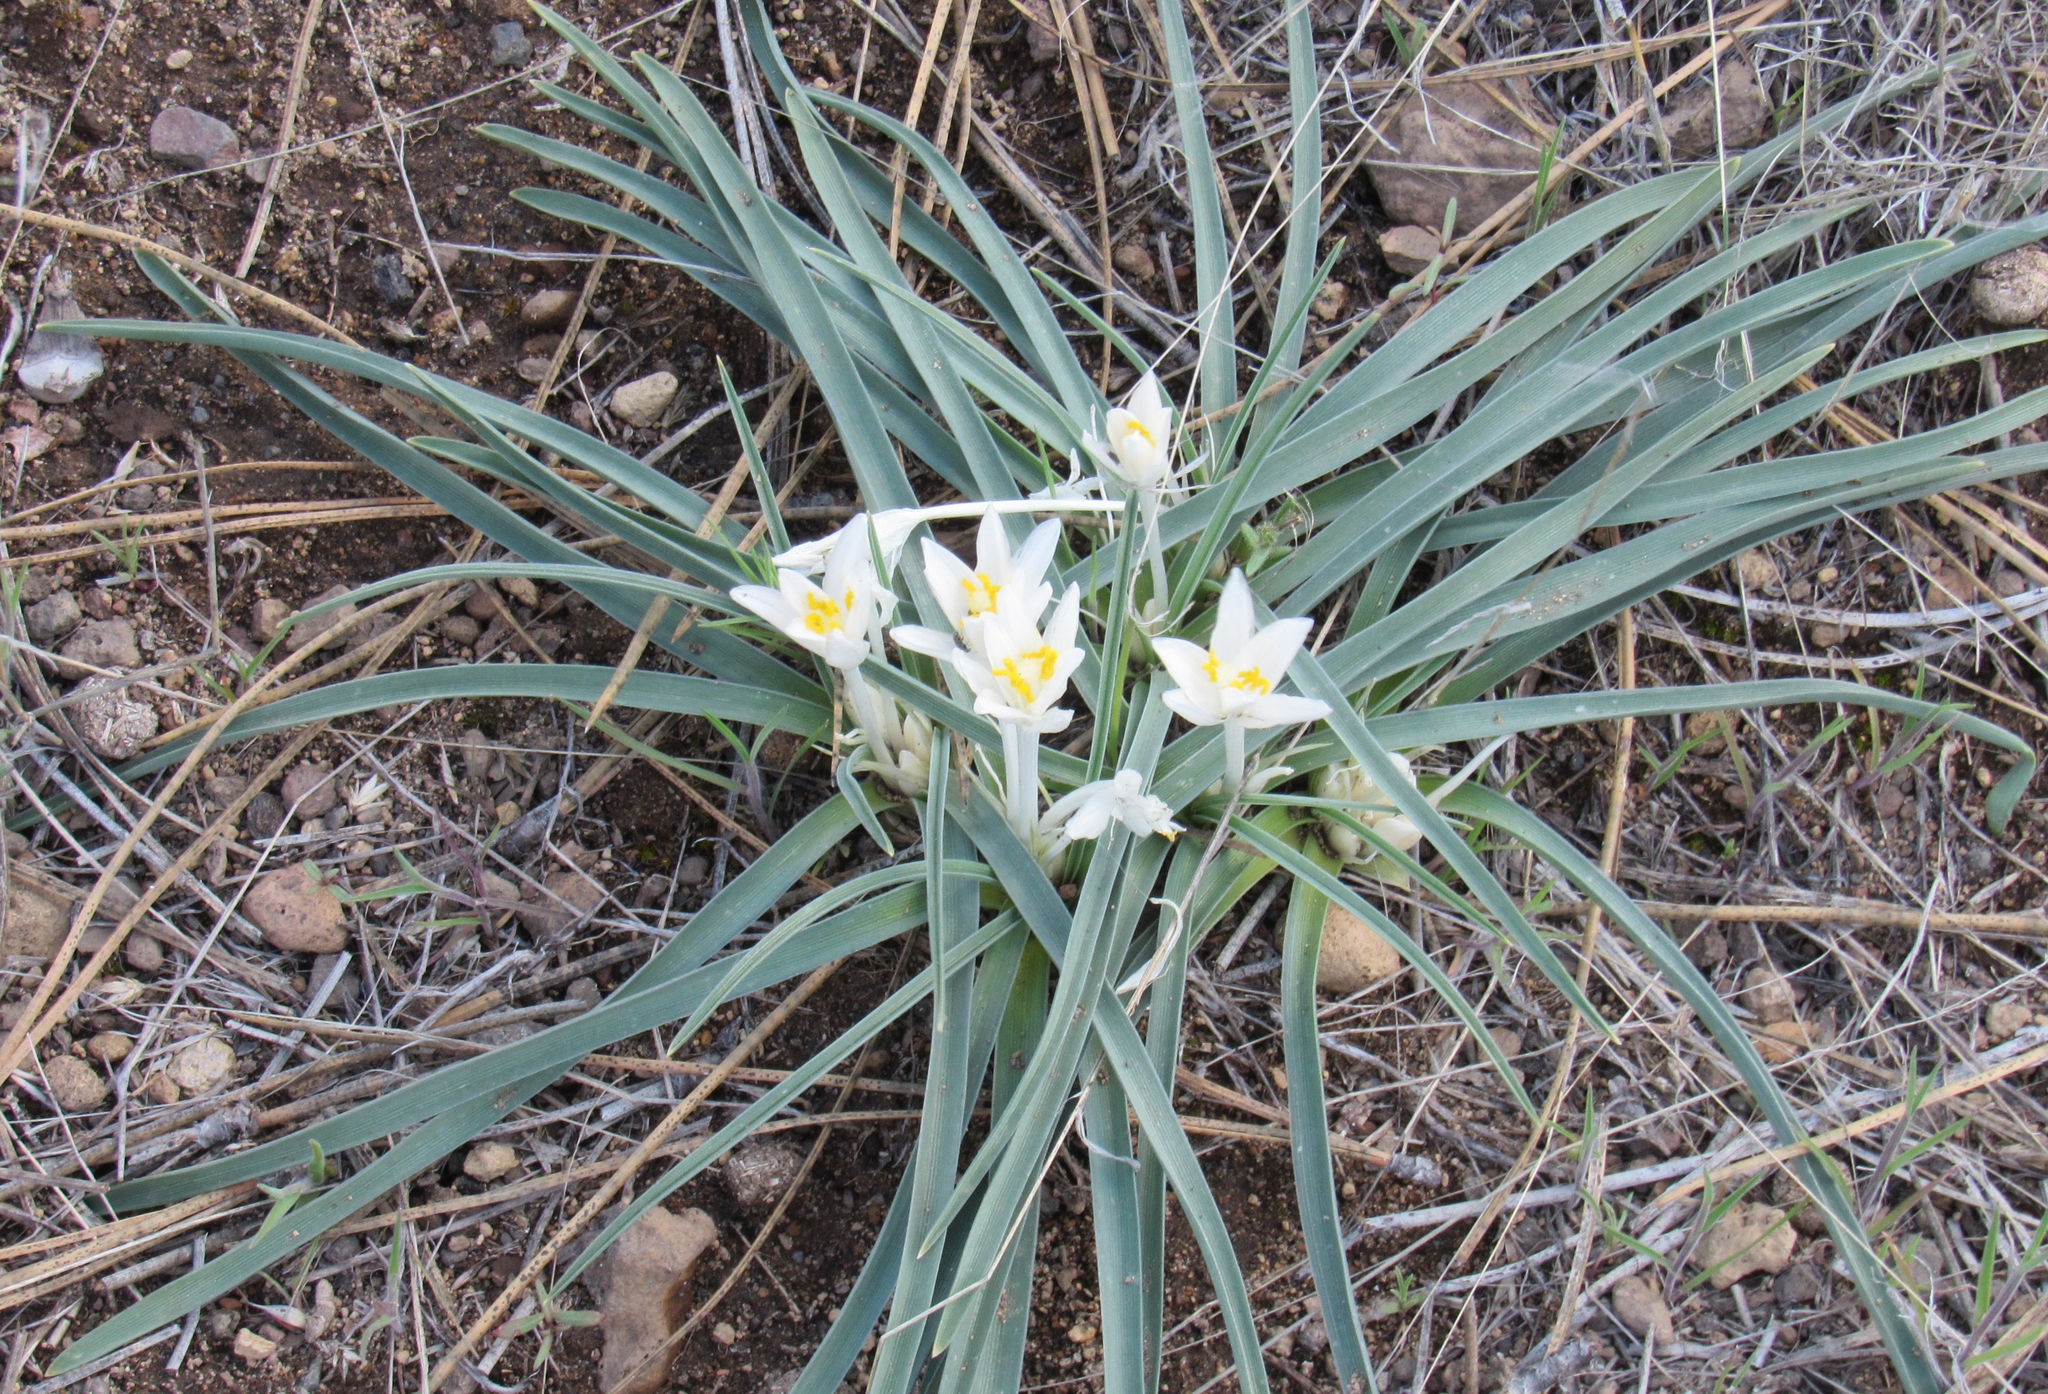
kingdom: Plantae
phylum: Tracheophyta
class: Liliopsida
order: Asparagales
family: Asparagaceae
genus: Leucocrinum
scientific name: Leucocrinum montanum
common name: Mountain-lily
